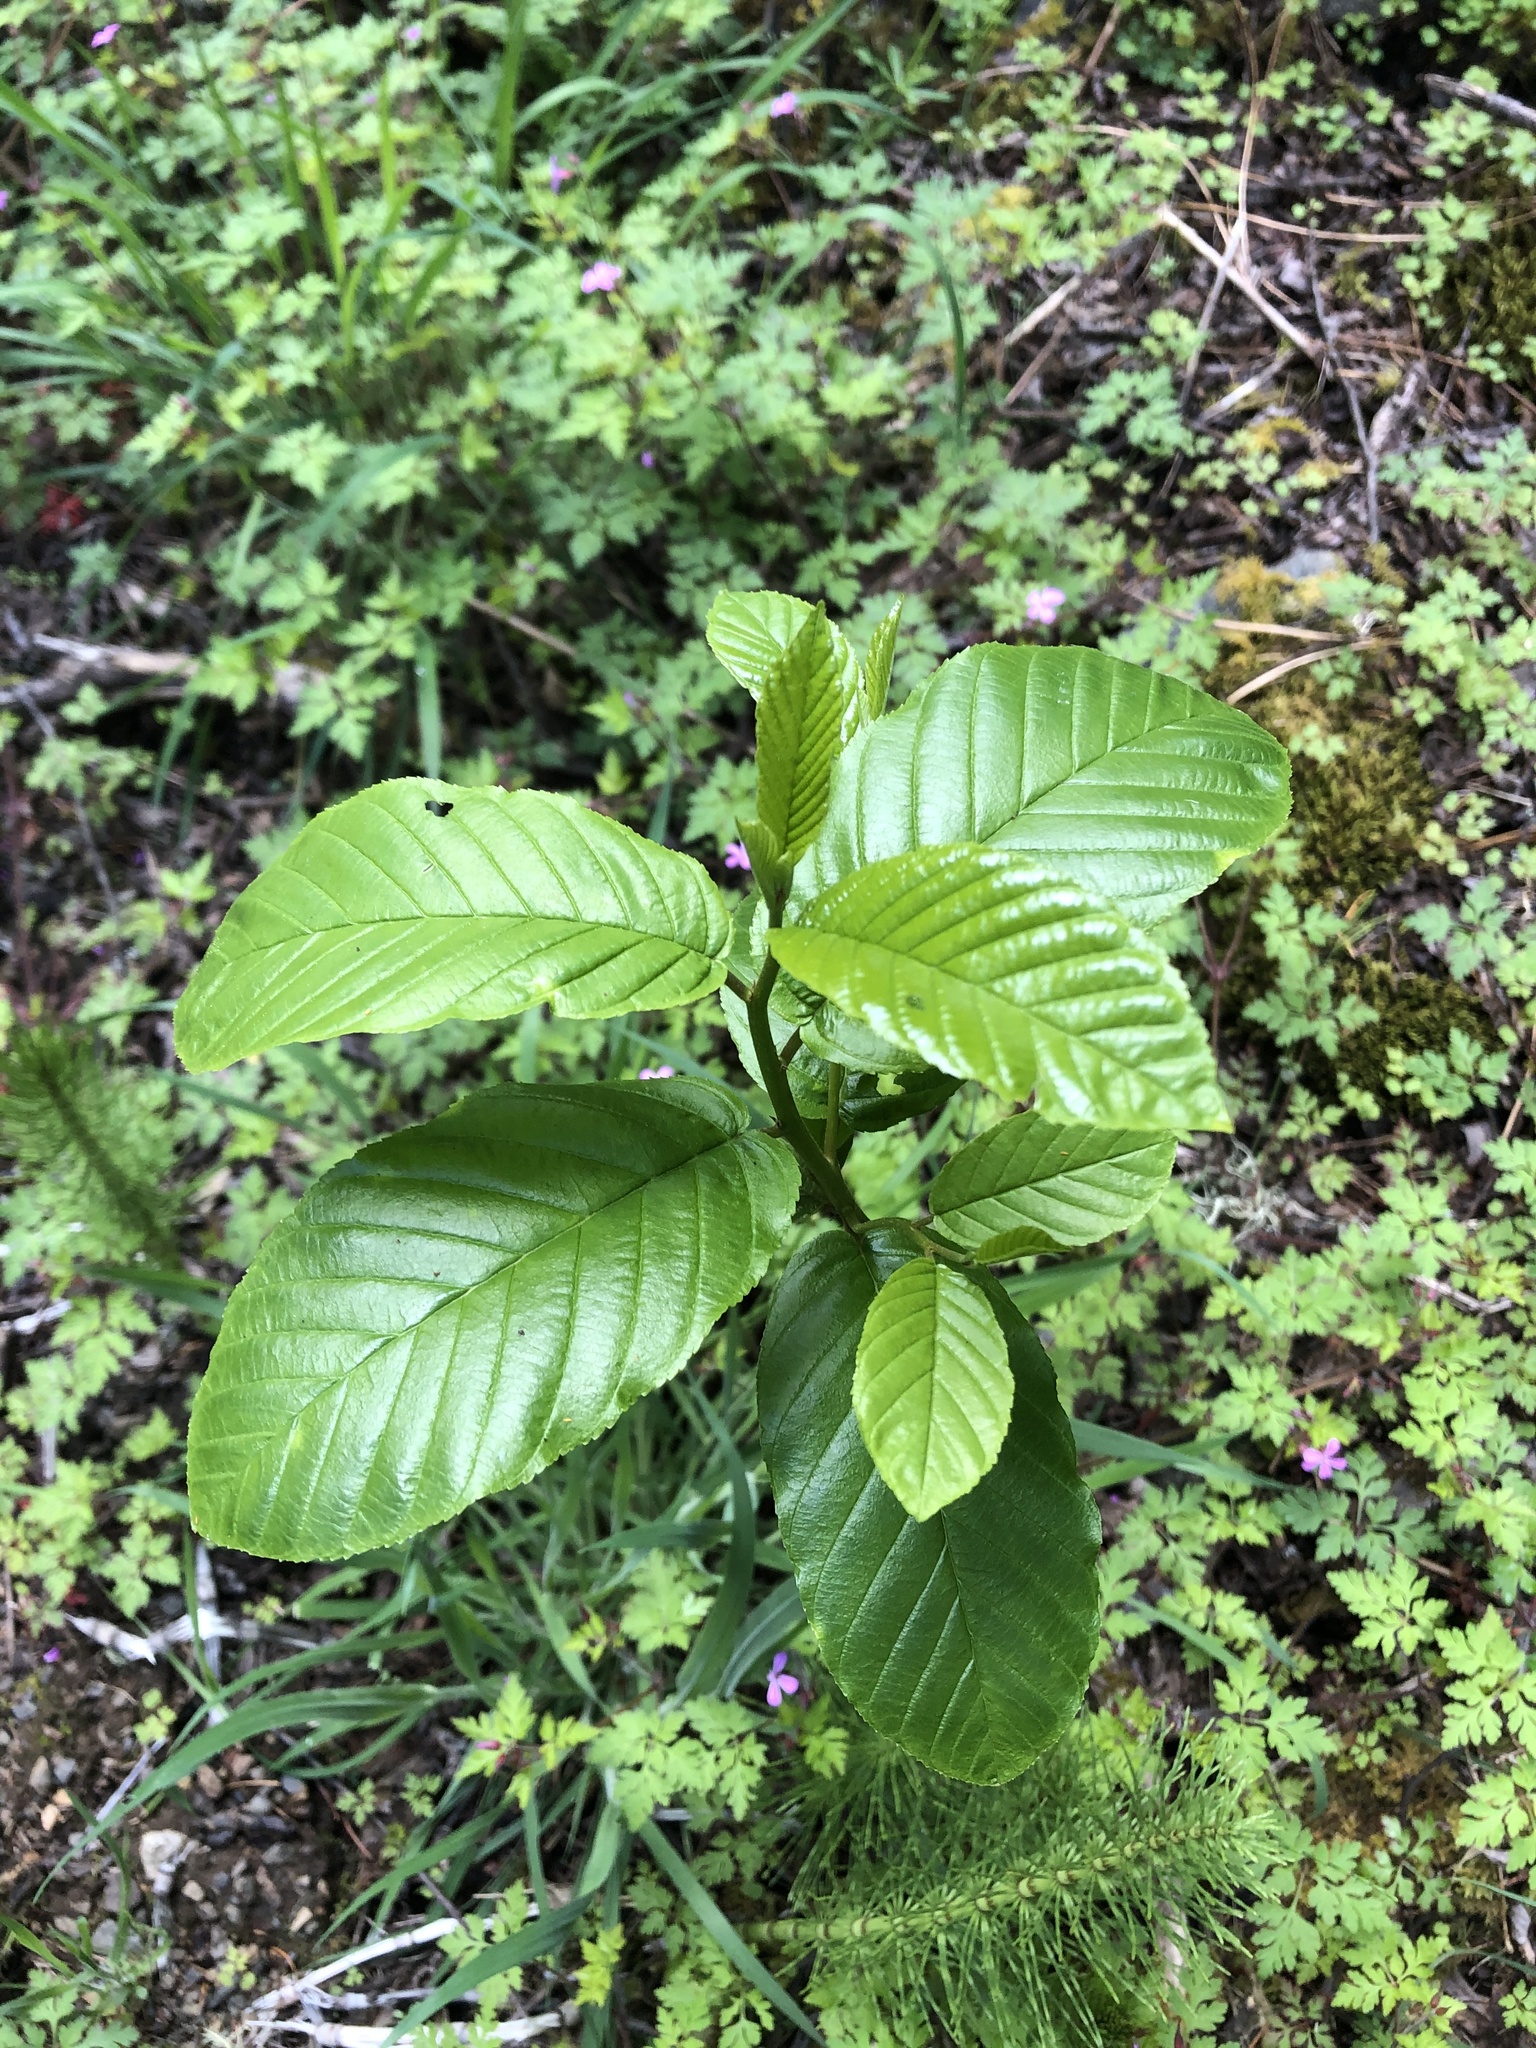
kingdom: Plantae
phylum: Tracheophyta
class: Magnoliopsida
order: Rosales
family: Rhamnaceae
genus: Frangula
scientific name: Frangula purshiana
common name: Cascara buckthorn
